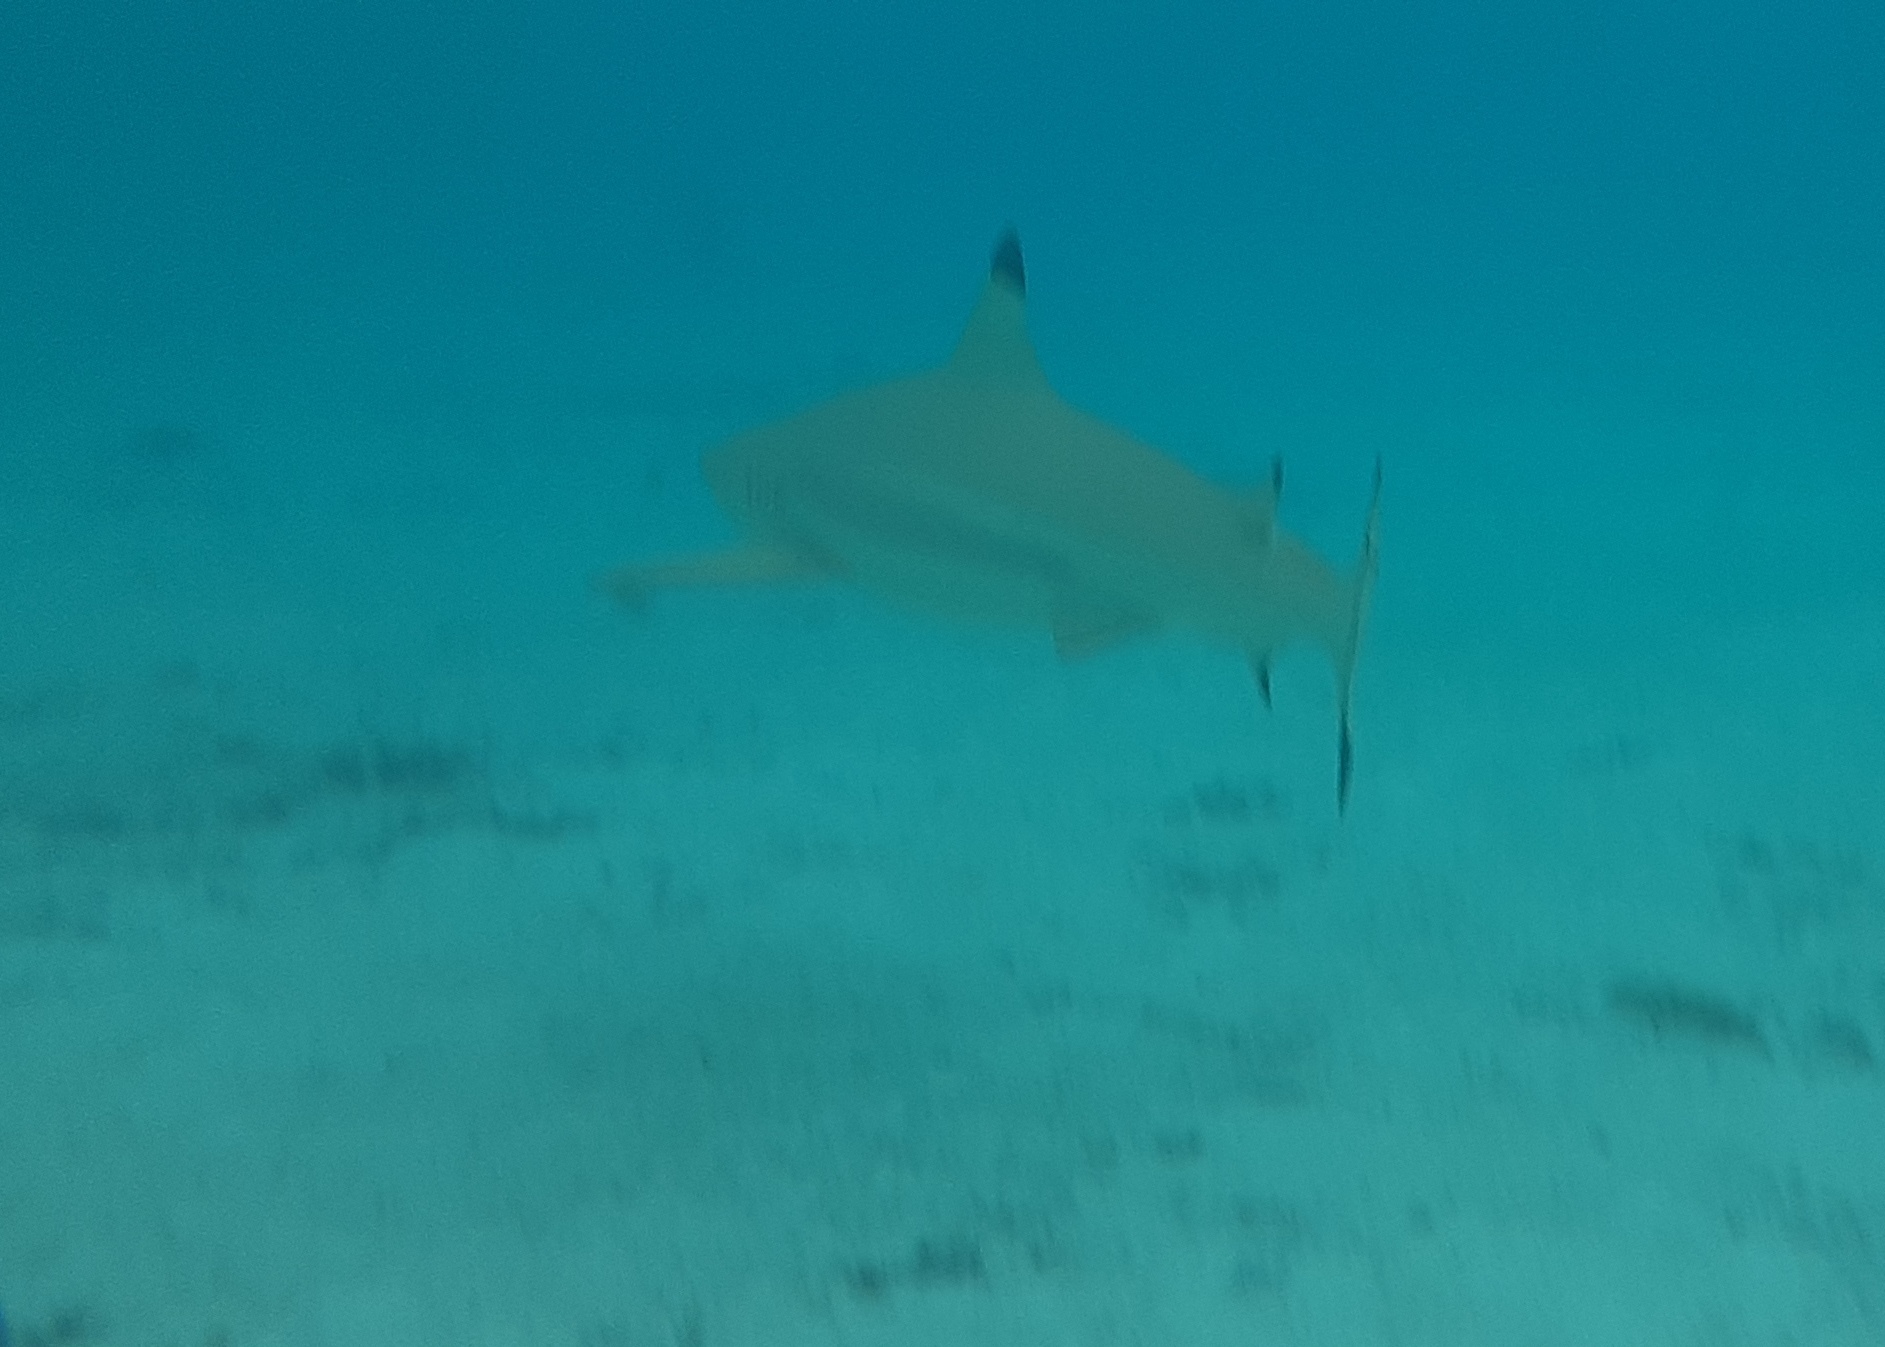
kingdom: Animalia
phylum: Chordata
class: Elasmobranchii
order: Carcharhiniformes
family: Carcharhinidae
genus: Carcharhinus
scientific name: Carcharhinus melanopterus
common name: Blacktip reef shark
